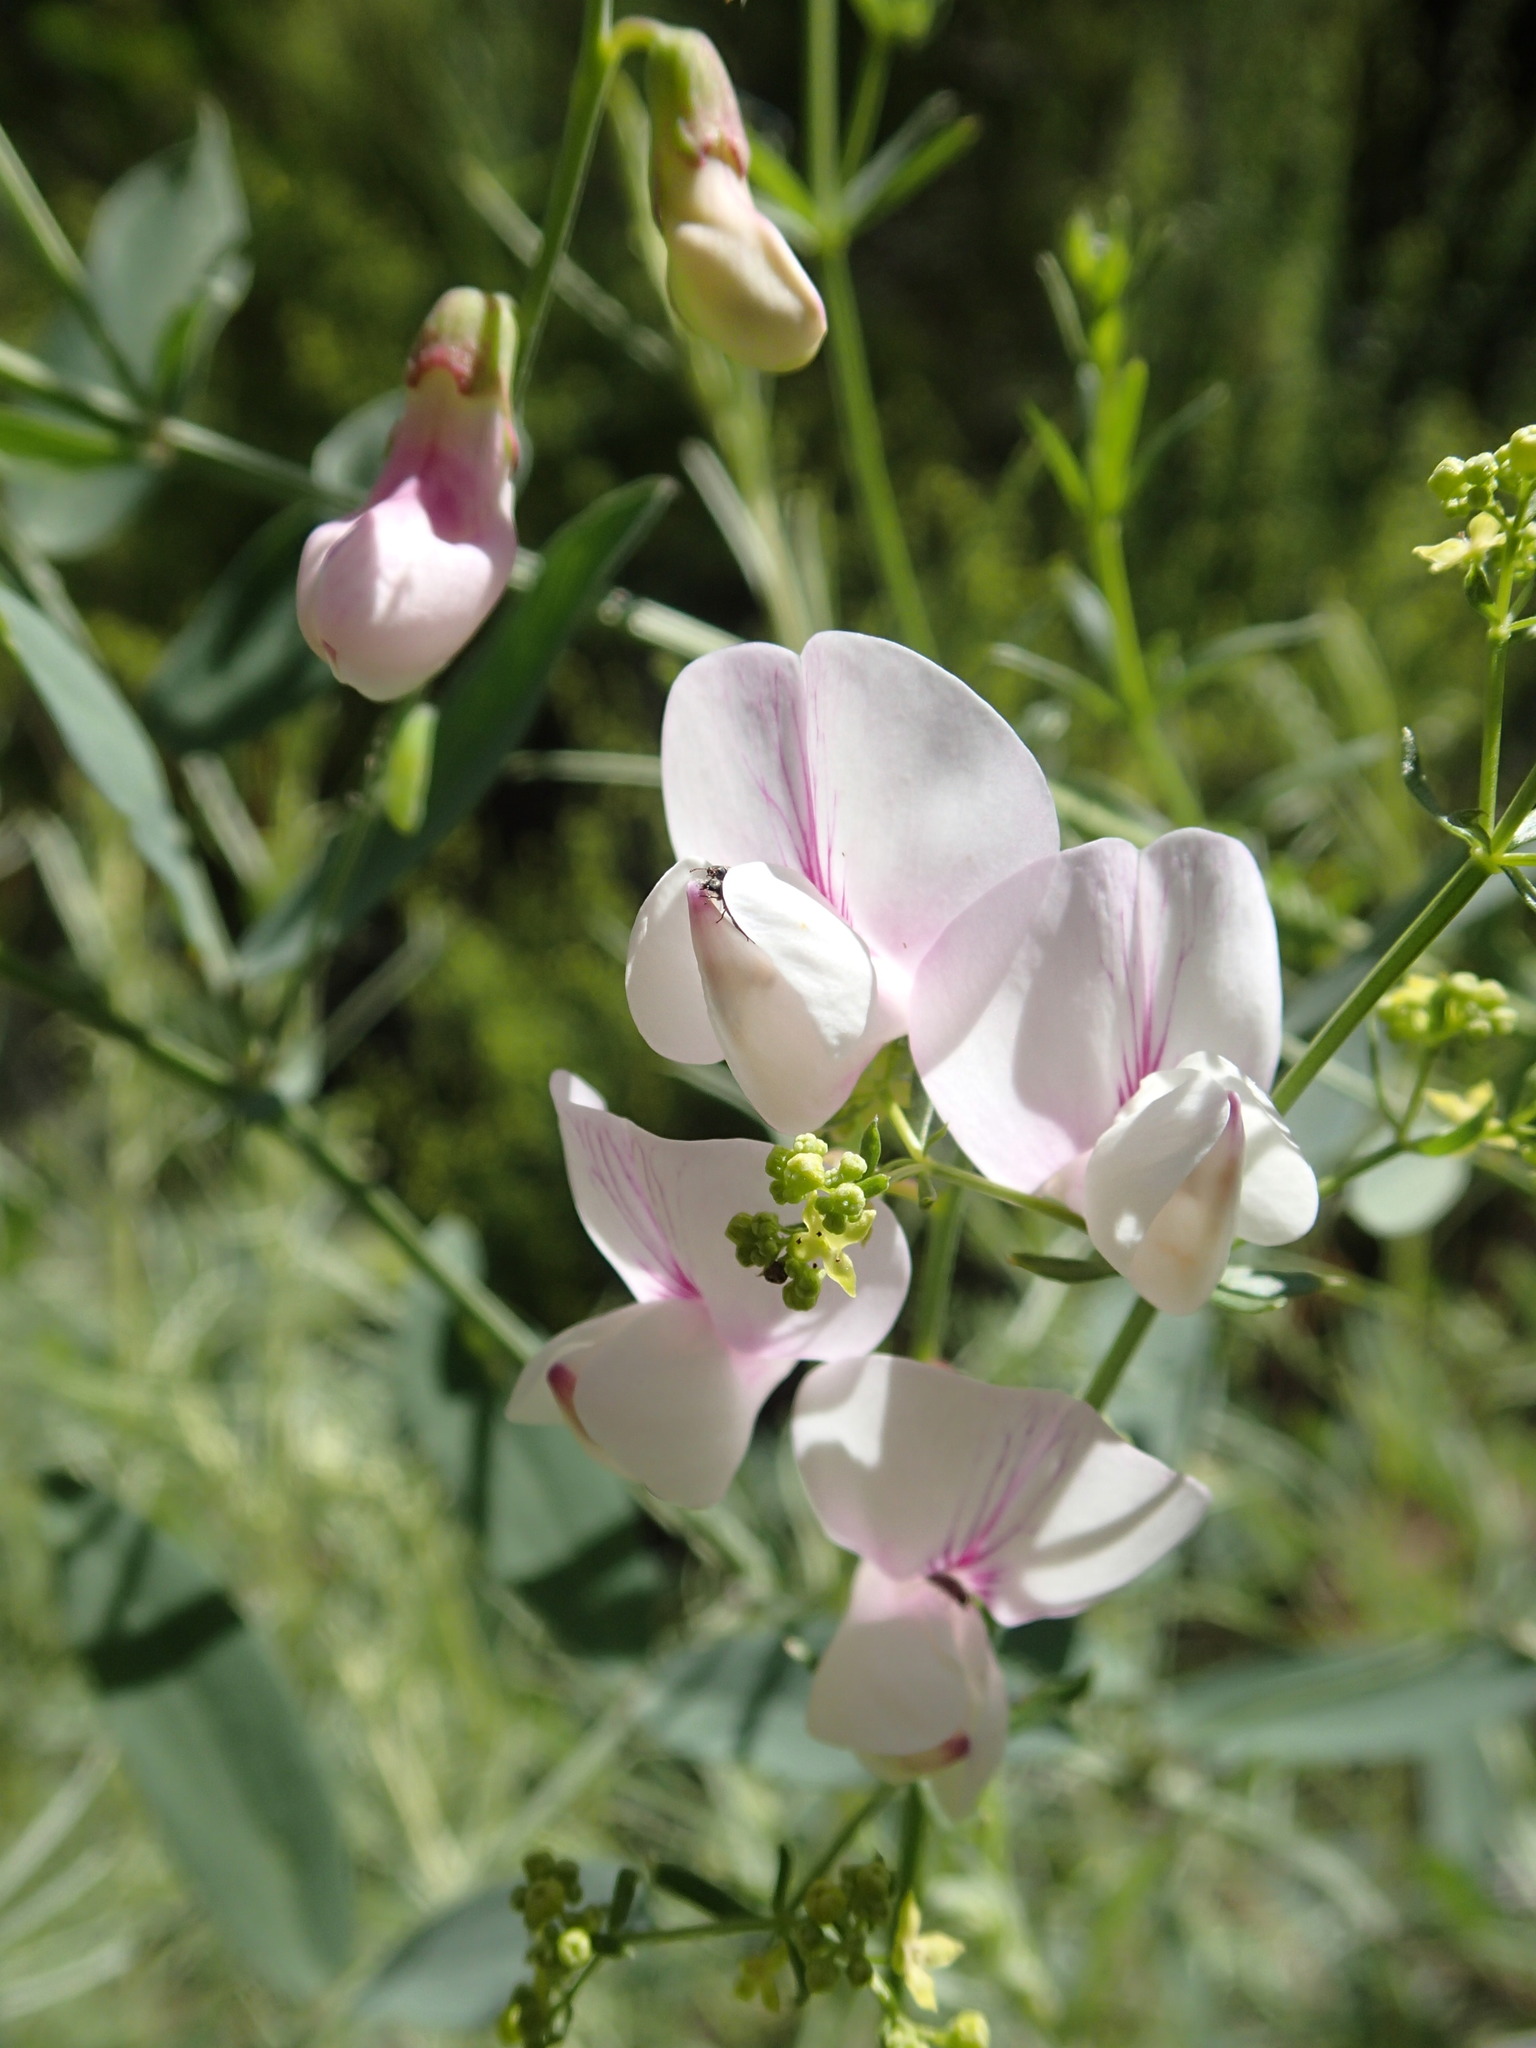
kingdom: Plantae
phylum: Tracheophyta
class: Magnoliopsida
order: Fabales
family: Fabaceae
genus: Lathyrus
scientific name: Lathyrus vestitus
